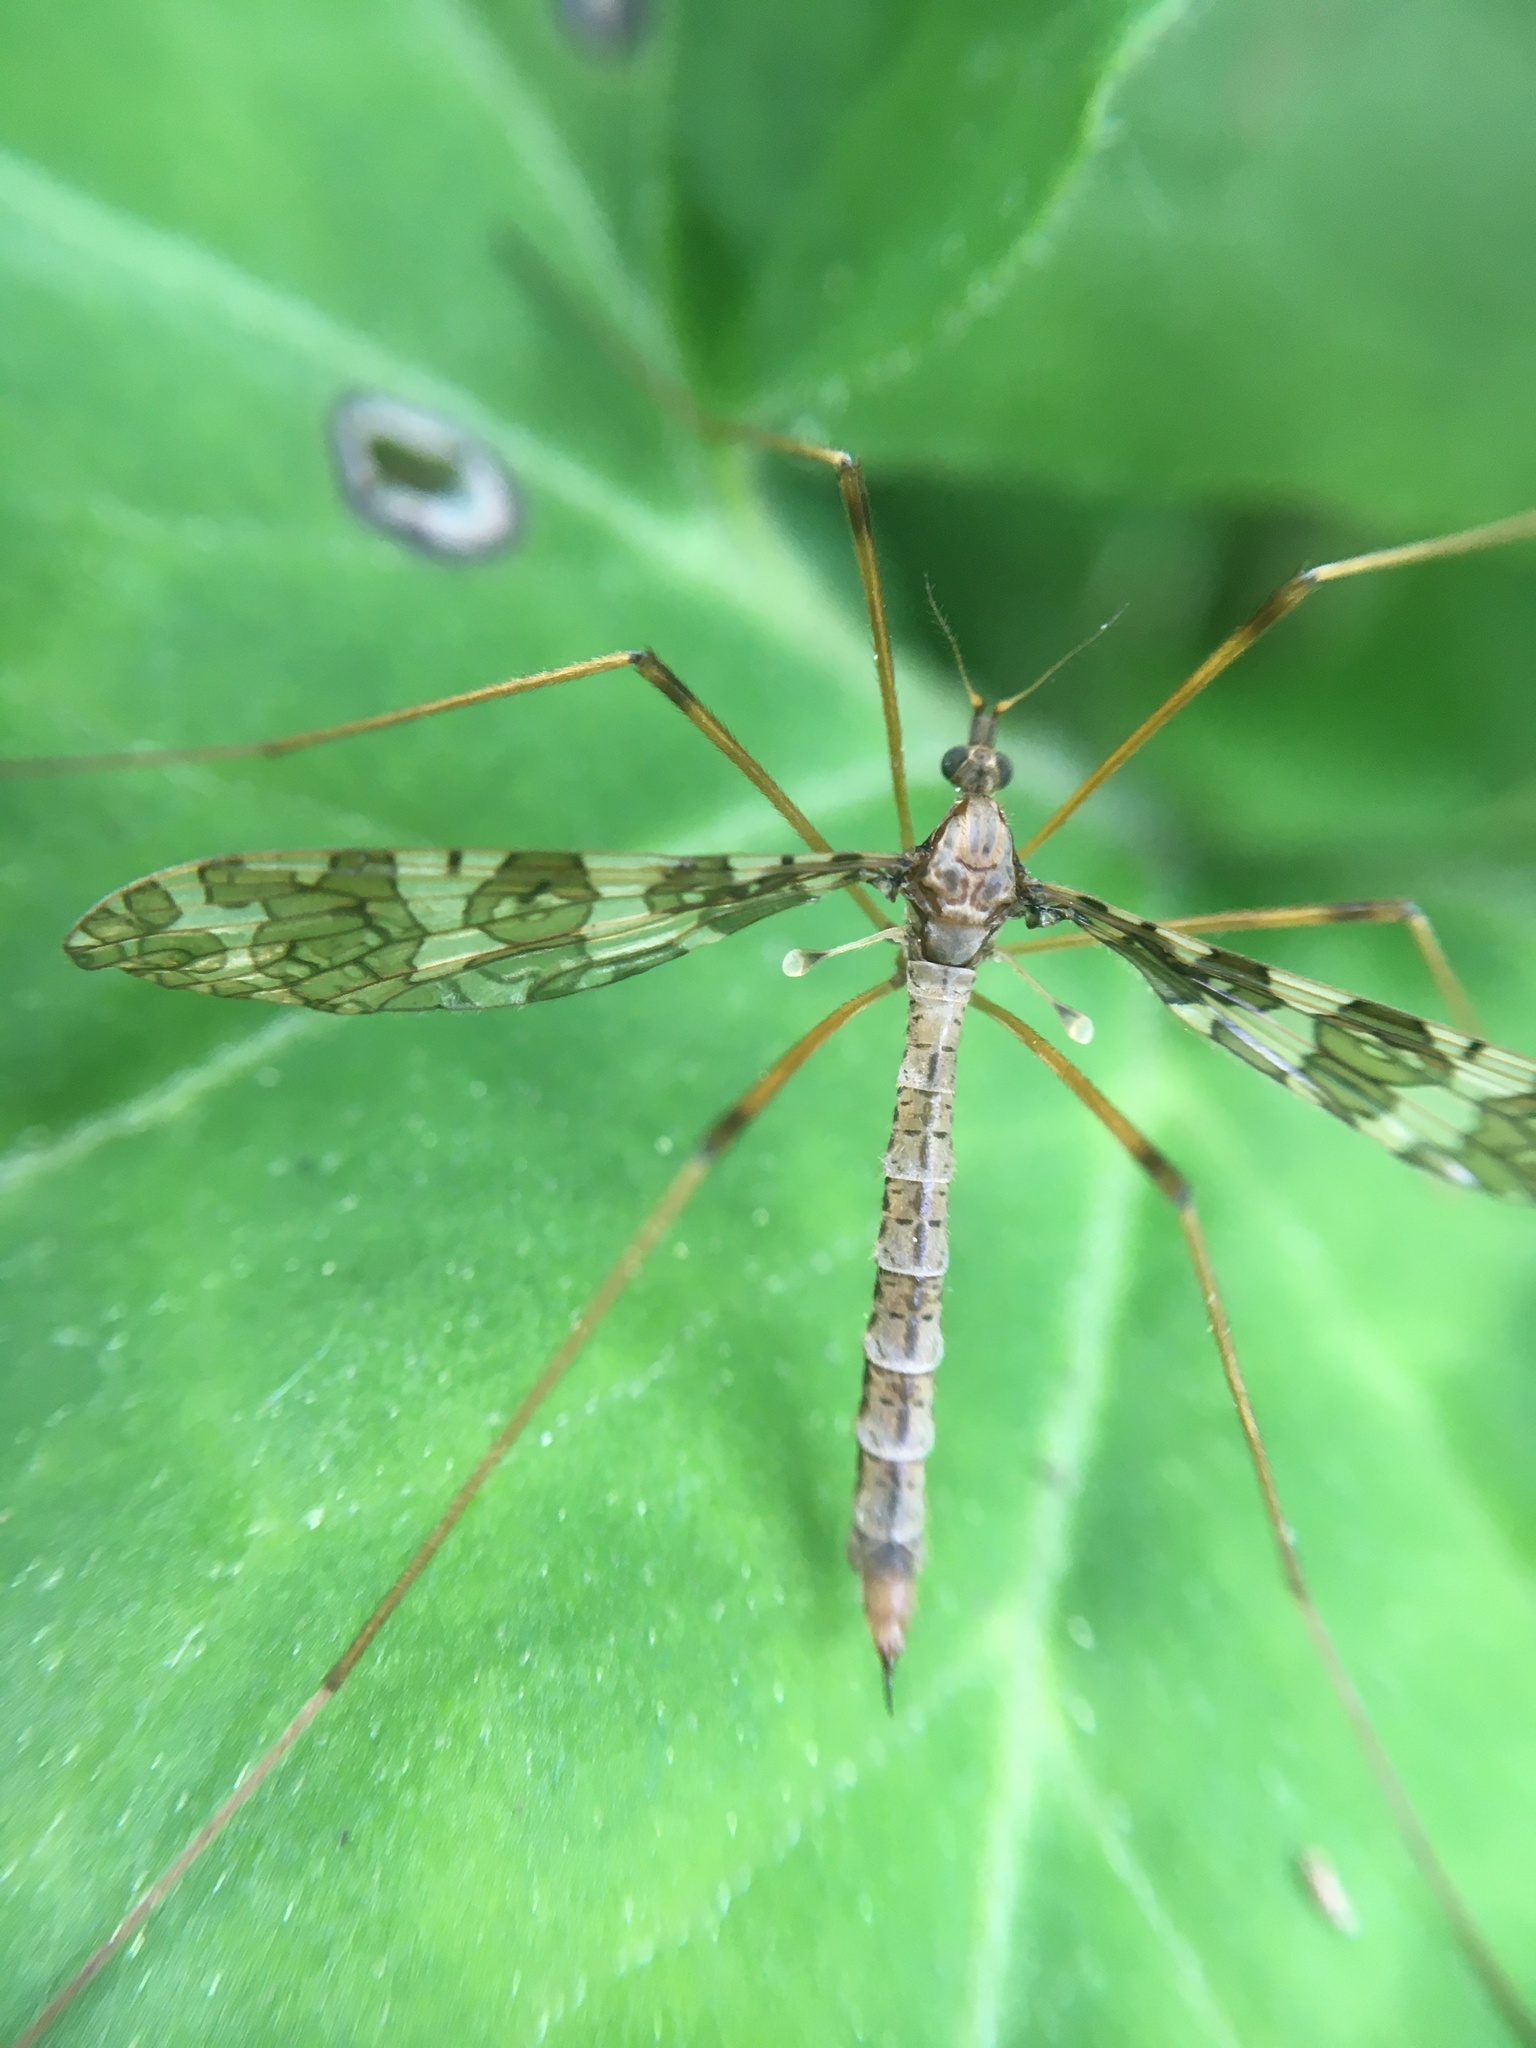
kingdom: Animalia
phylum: Arthropoda
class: Insecta
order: Diptera
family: Limoniidae
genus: Epiphragma
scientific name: Epiphragma fasciapenne
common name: Band-winged crane fly
